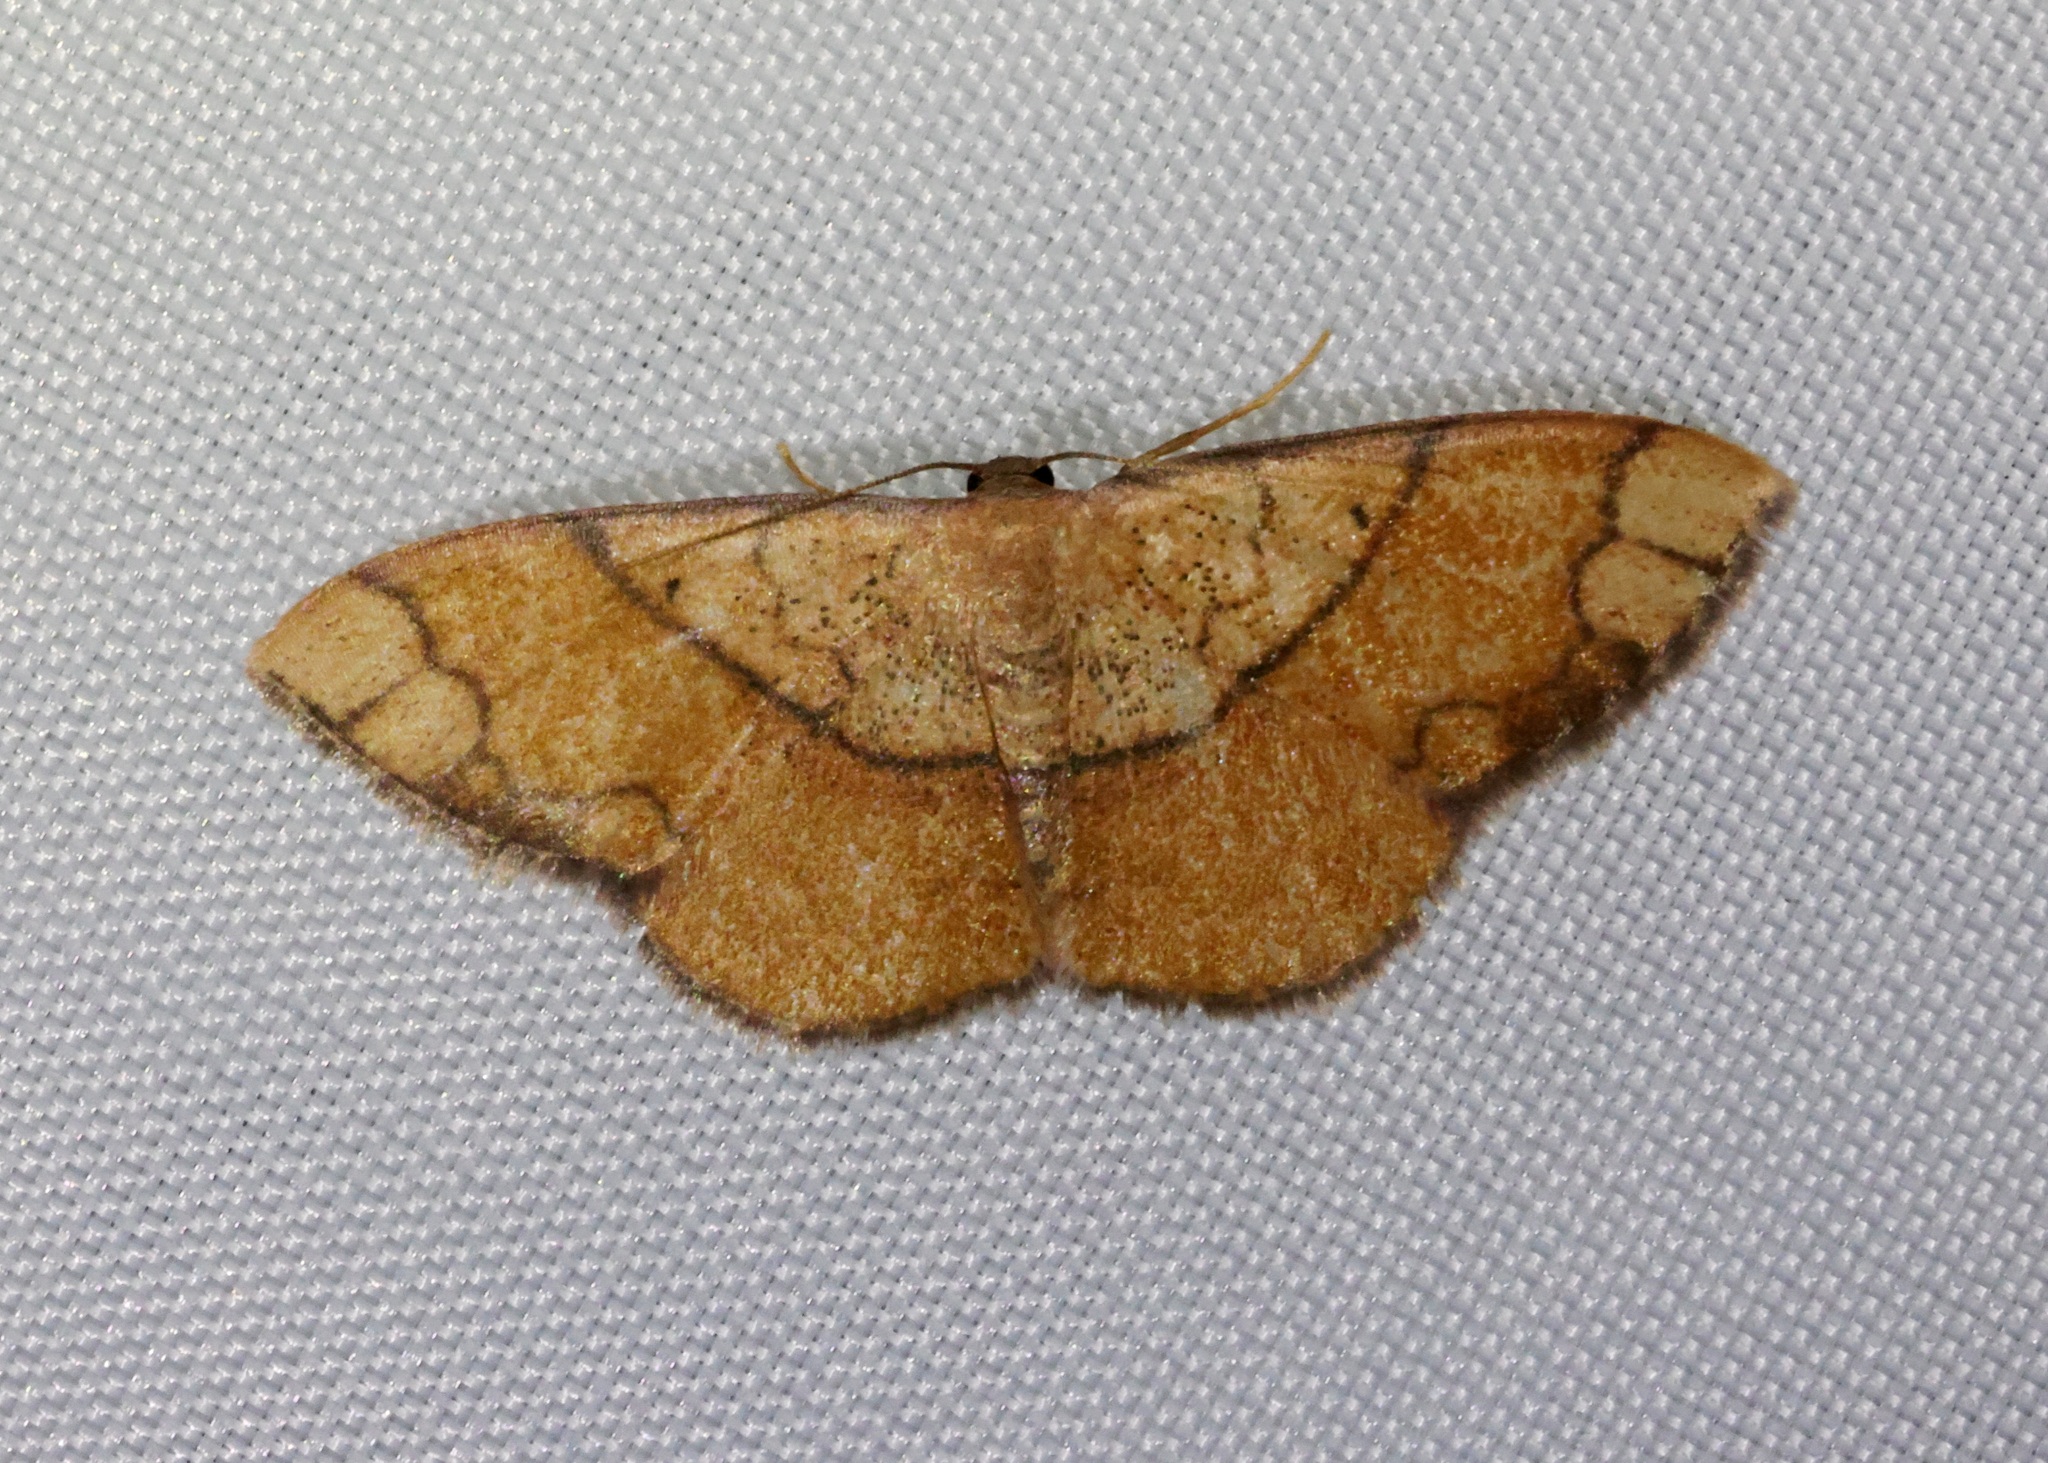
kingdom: Animalia
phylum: Arthropoda
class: Insecta
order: Lepidoptera
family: Geometridae
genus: Pylargosceles
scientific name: Pylargosceles steganioides
